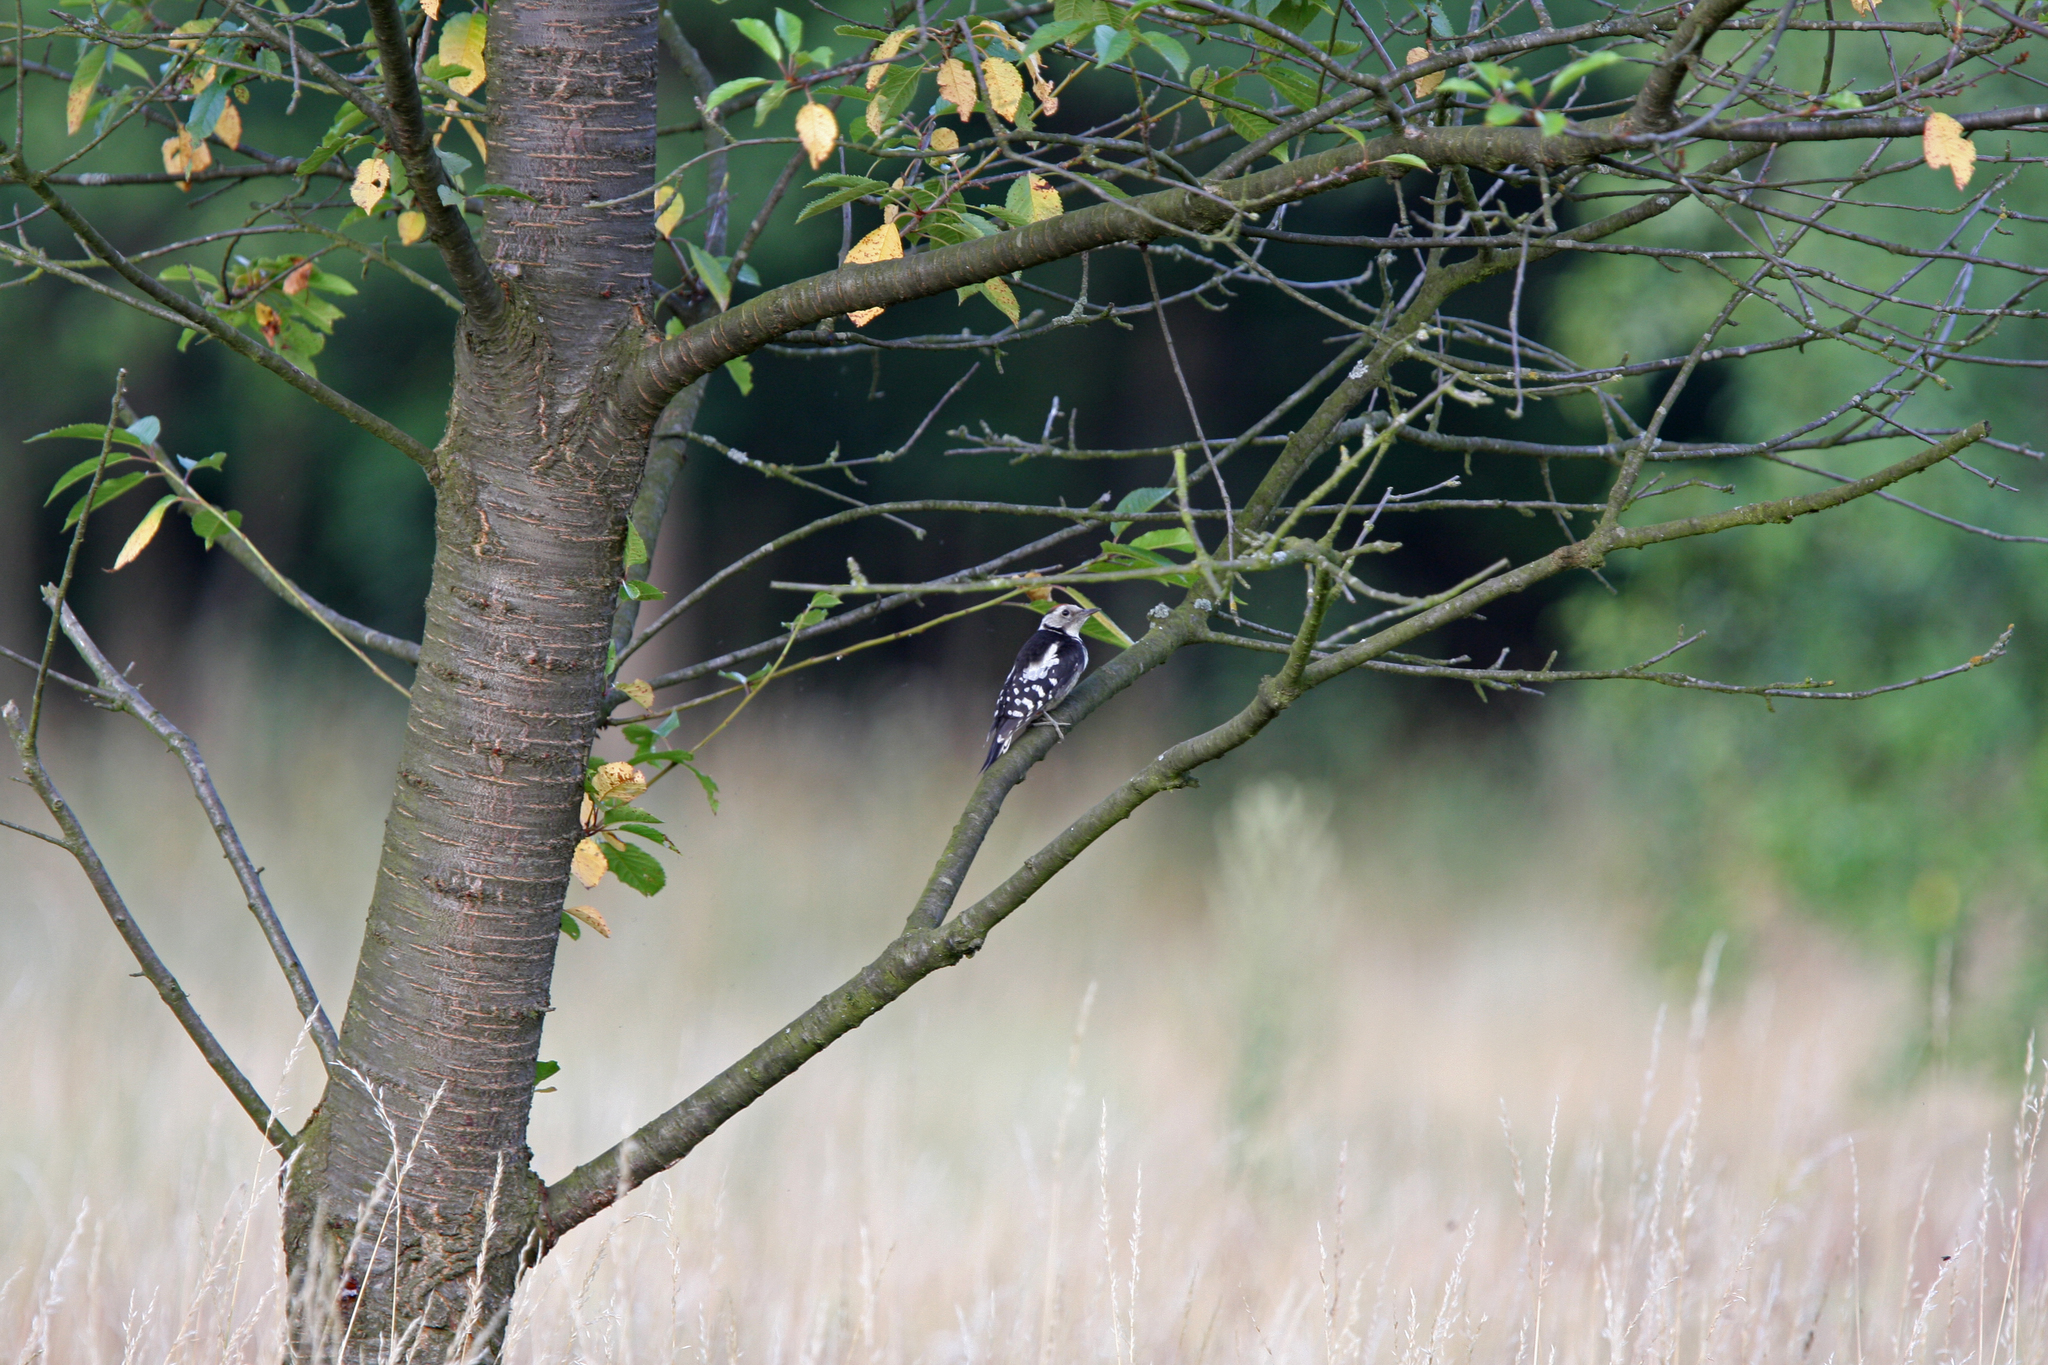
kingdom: Animalia
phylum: Chordata
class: Aves
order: Piciformes
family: Picidae
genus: Dendrocoptes
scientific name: Dendrocoptes medius
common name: Middle spotted woodpecker
